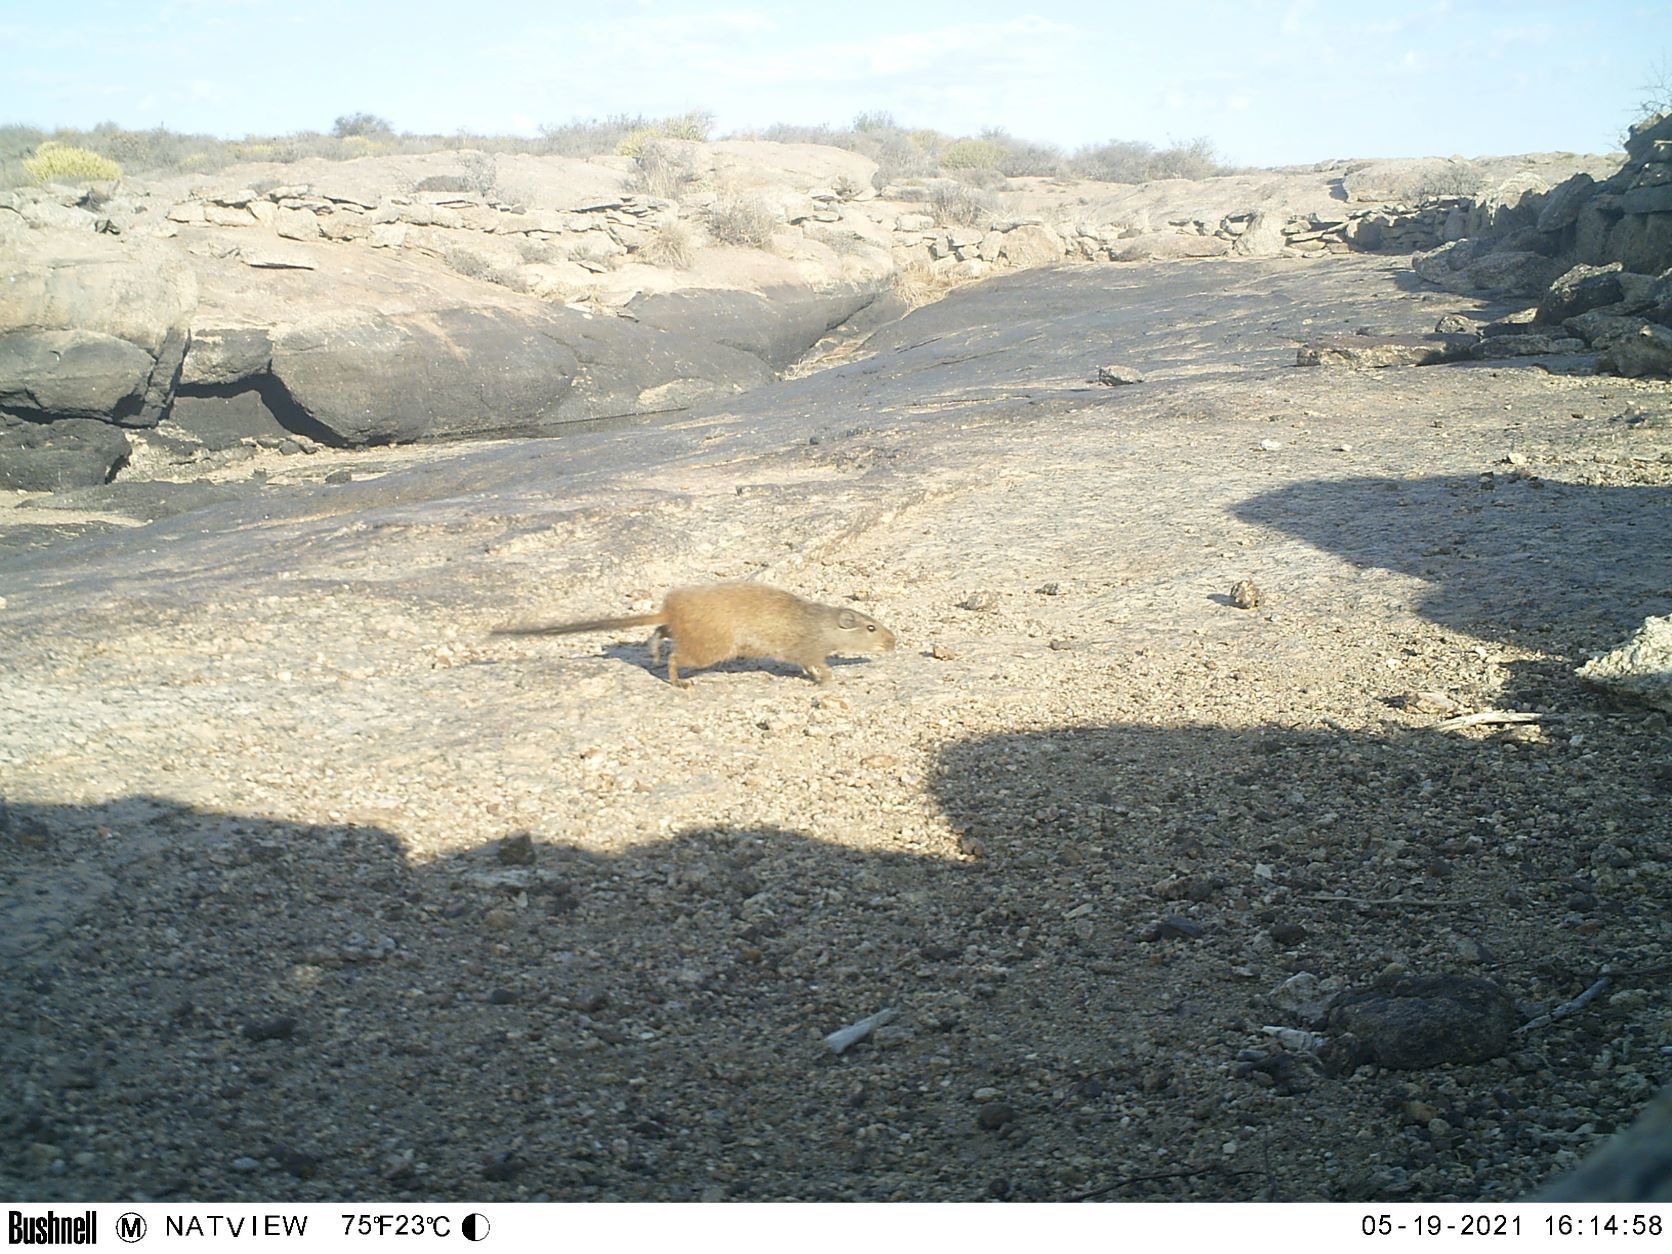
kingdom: Animalia
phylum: Chordata
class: Mammalia
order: Rodentia
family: Petromuridae
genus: Petromus
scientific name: Petromus typicus
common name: Dassie rat
